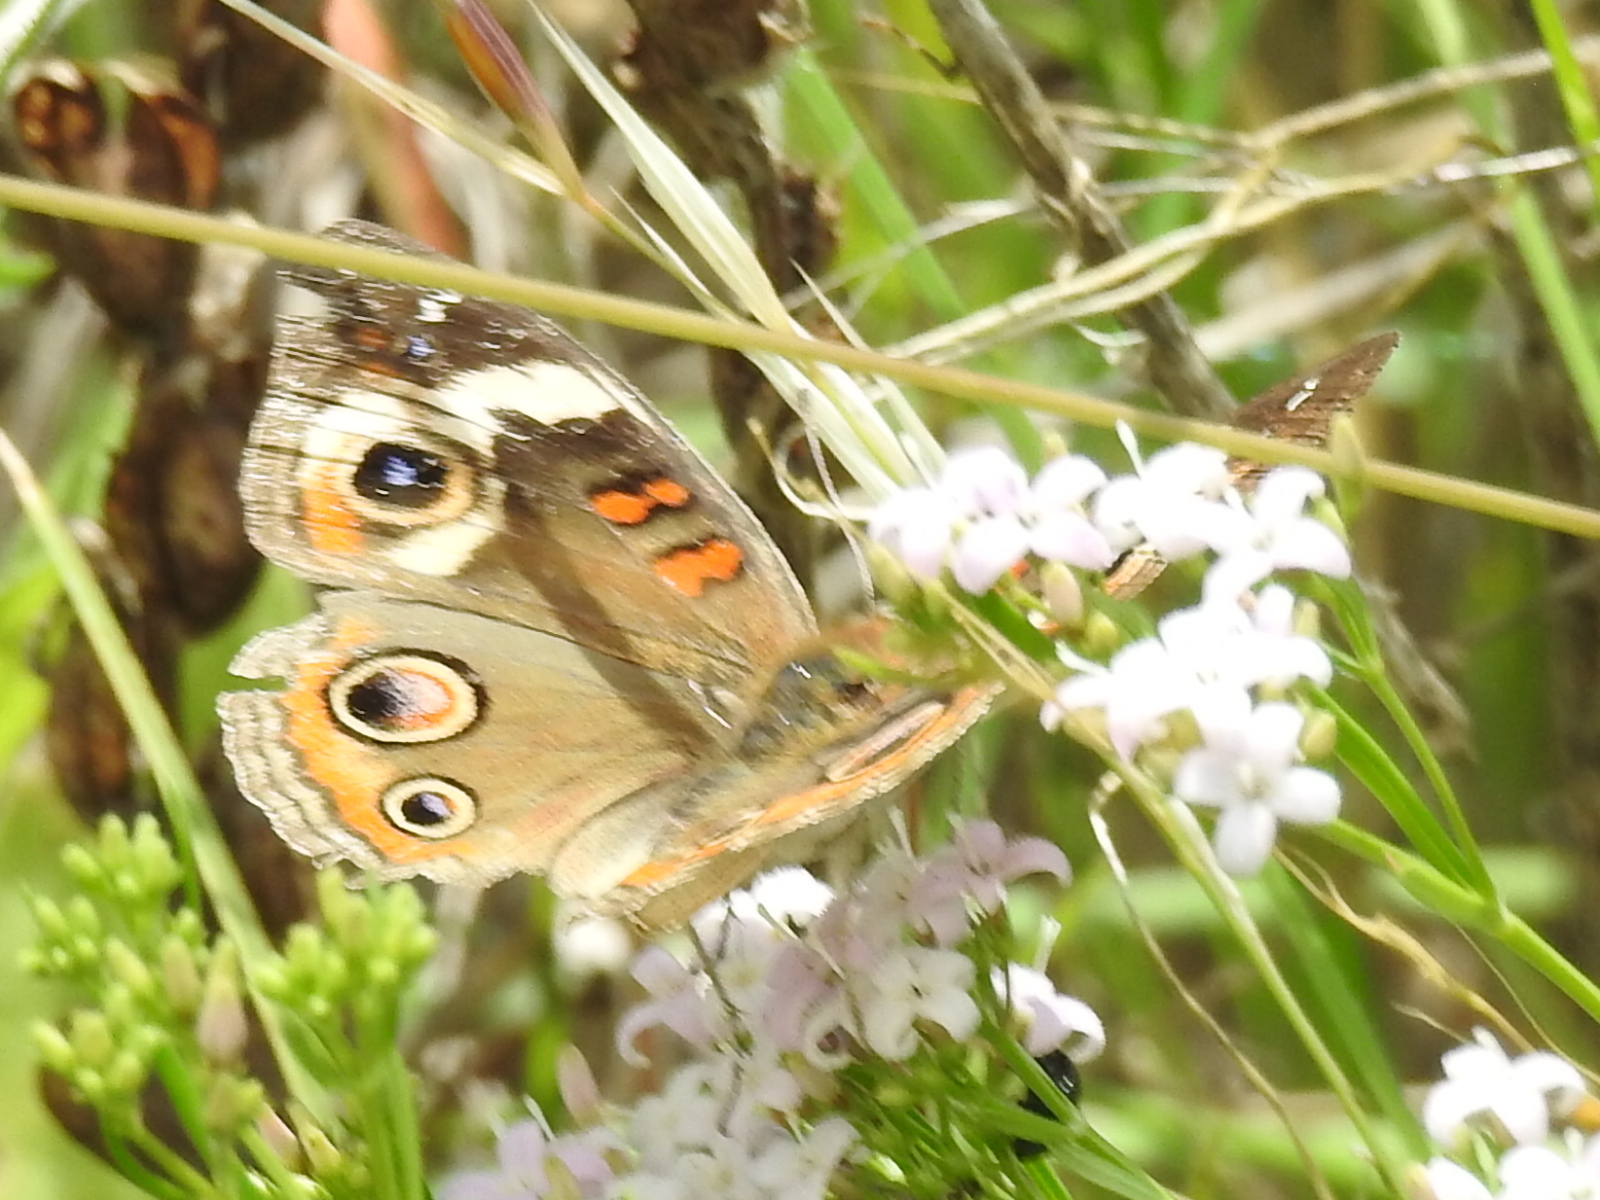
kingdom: Animalia
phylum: Arthropoda
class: Insecta
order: Lepidoptera
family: Nymphalidae
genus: Junonia
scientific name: Junonia coenia
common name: Common buckeye
